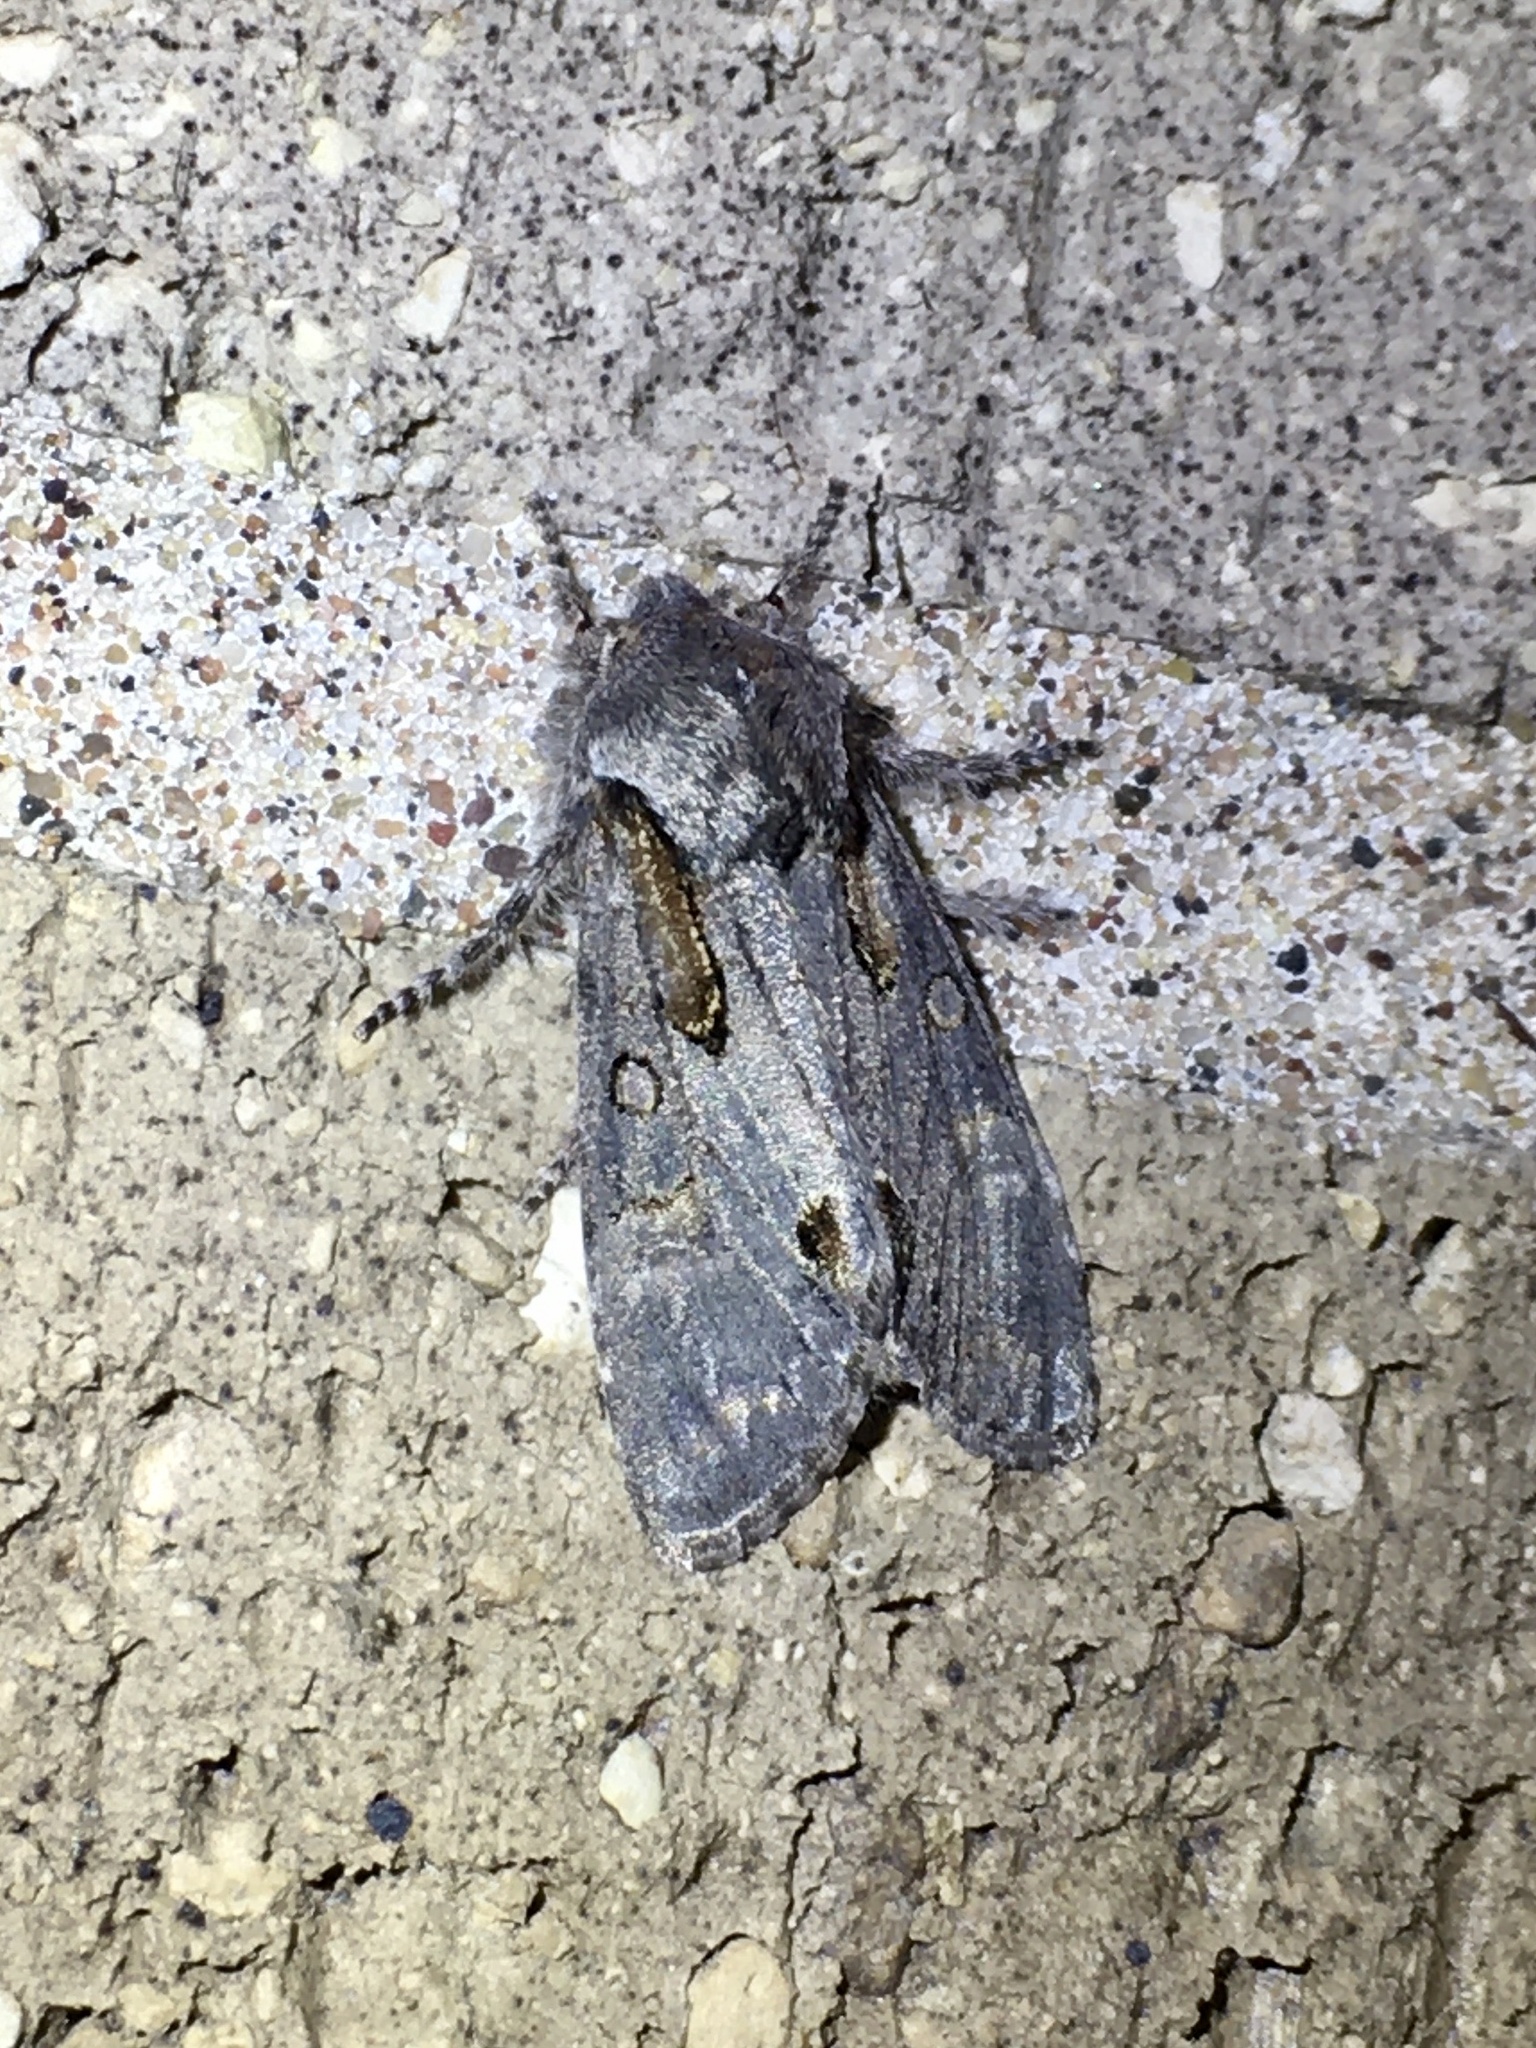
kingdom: Animalia
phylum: Arthropoda
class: Insecta
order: Lepidoptera
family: Noctuidae
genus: Psaphida
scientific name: Psaphida electilis
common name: Chosen sallow
